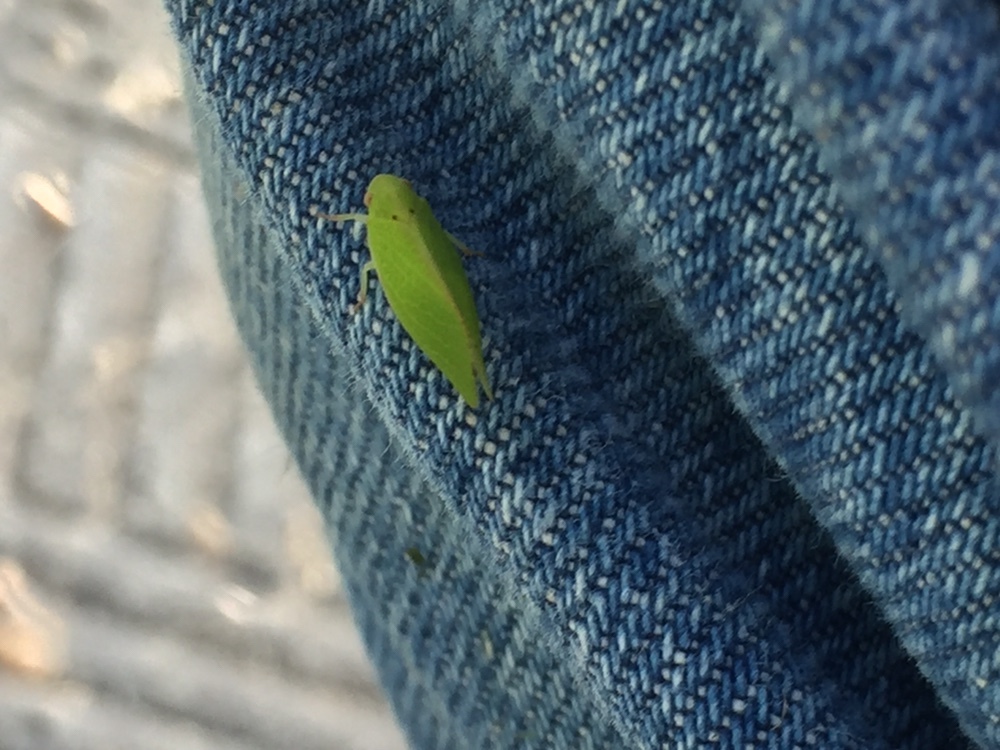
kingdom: Animalia
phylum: Arthropoda
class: Insecta
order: Hemiptera
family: Acanaloniidae
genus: Acanalonia
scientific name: Acanalonia conica
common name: Green cone-headed planthopper
